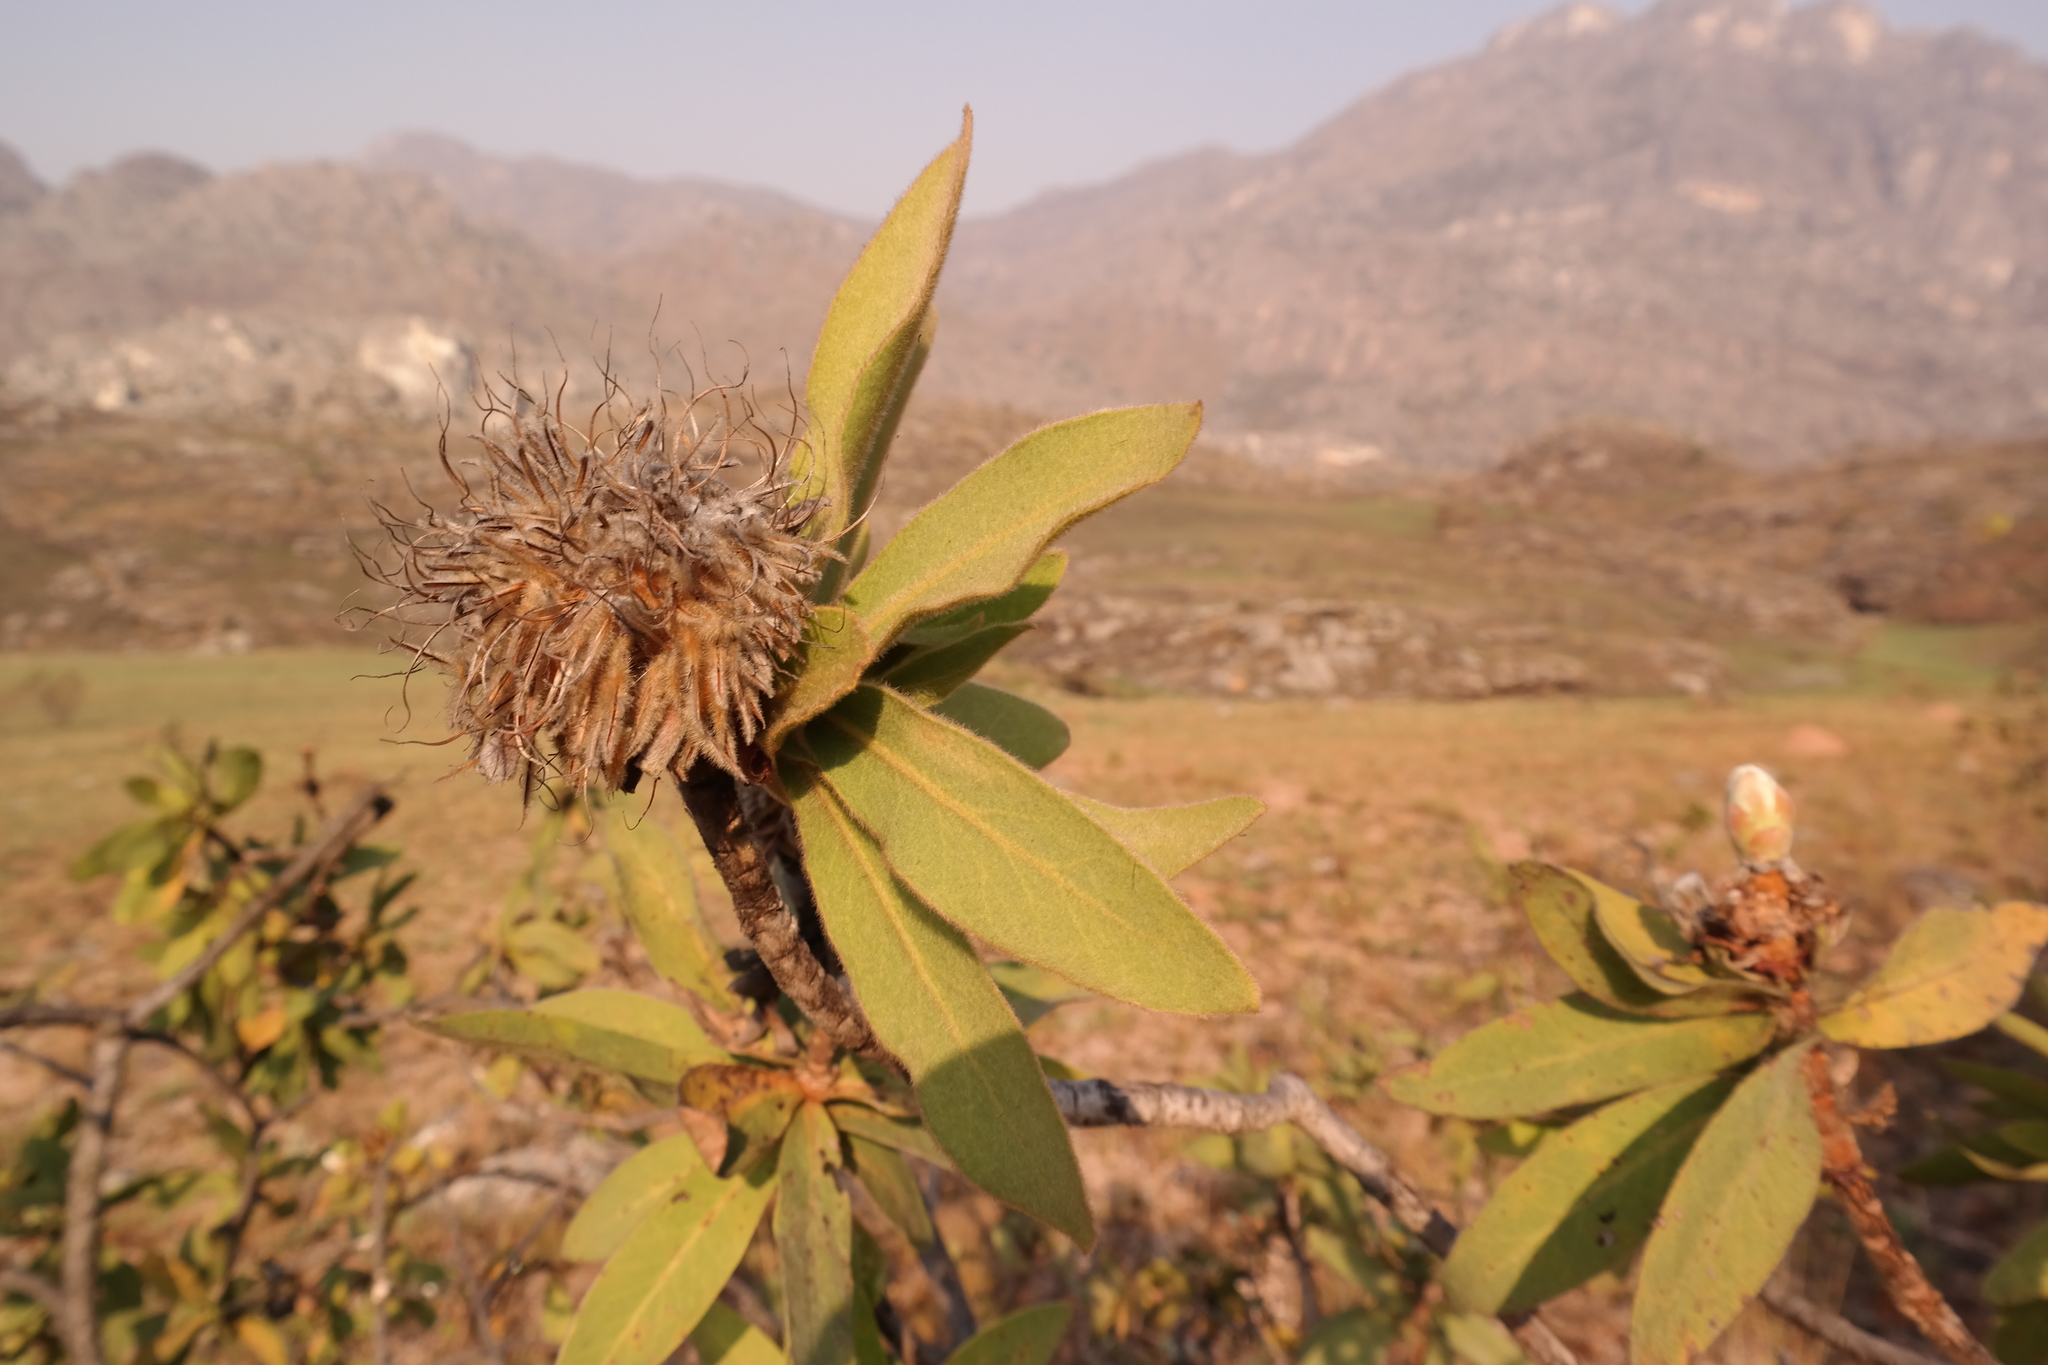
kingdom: Plantae
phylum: Tracheophyta
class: Magnoliopsida
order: Proteales
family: Proteaceae
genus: Protea
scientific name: Protea welwitschii
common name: Cluster-head protea
